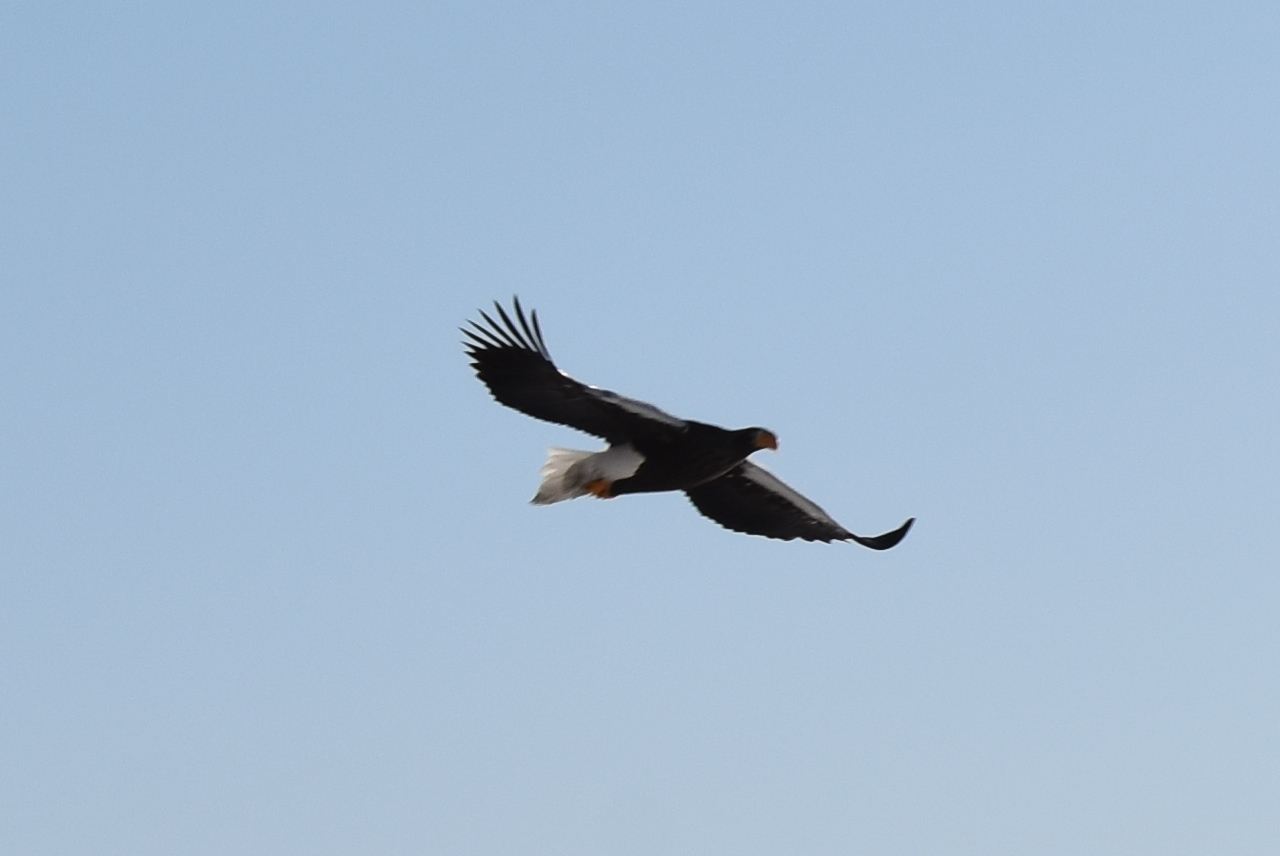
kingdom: Animalia
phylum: Chordata
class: Aves
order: Accipitriformes
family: Accipitridae
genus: Haliaeetus
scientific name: Haliaeetus pelagicus
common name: Steller's sea eagle
